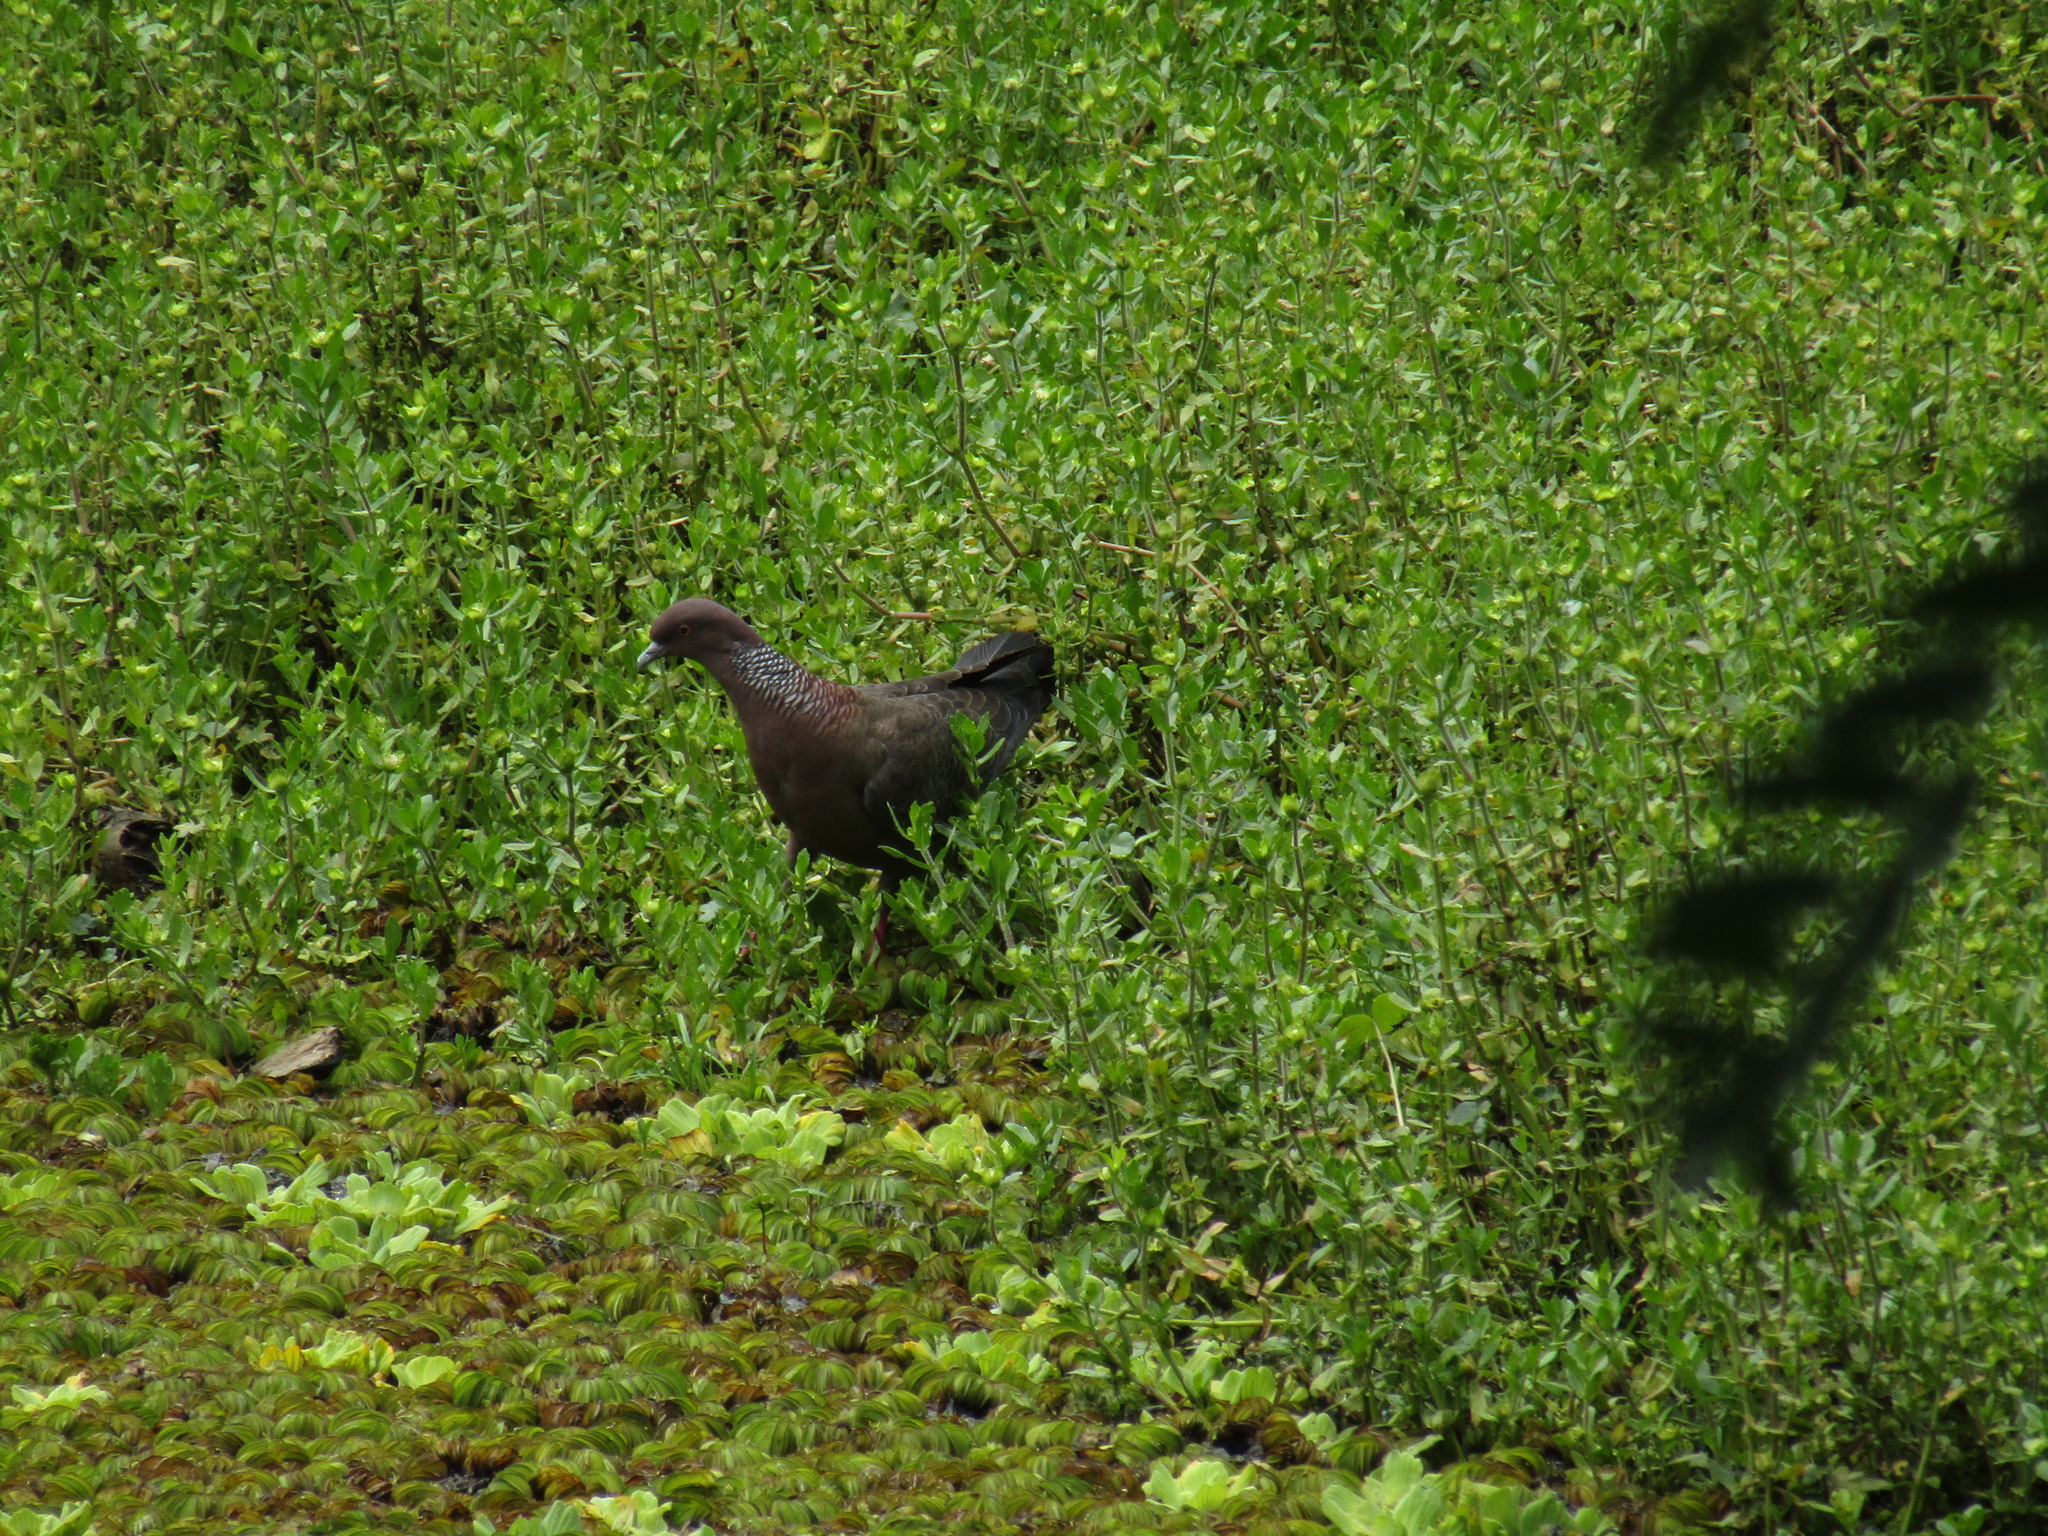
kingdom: Animalia
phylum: Chordata
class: Aves
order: Columbiformes
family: Columbidae
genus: Patagioenas
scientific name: Patagioenas picazuro
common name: Picazuro pigeon
